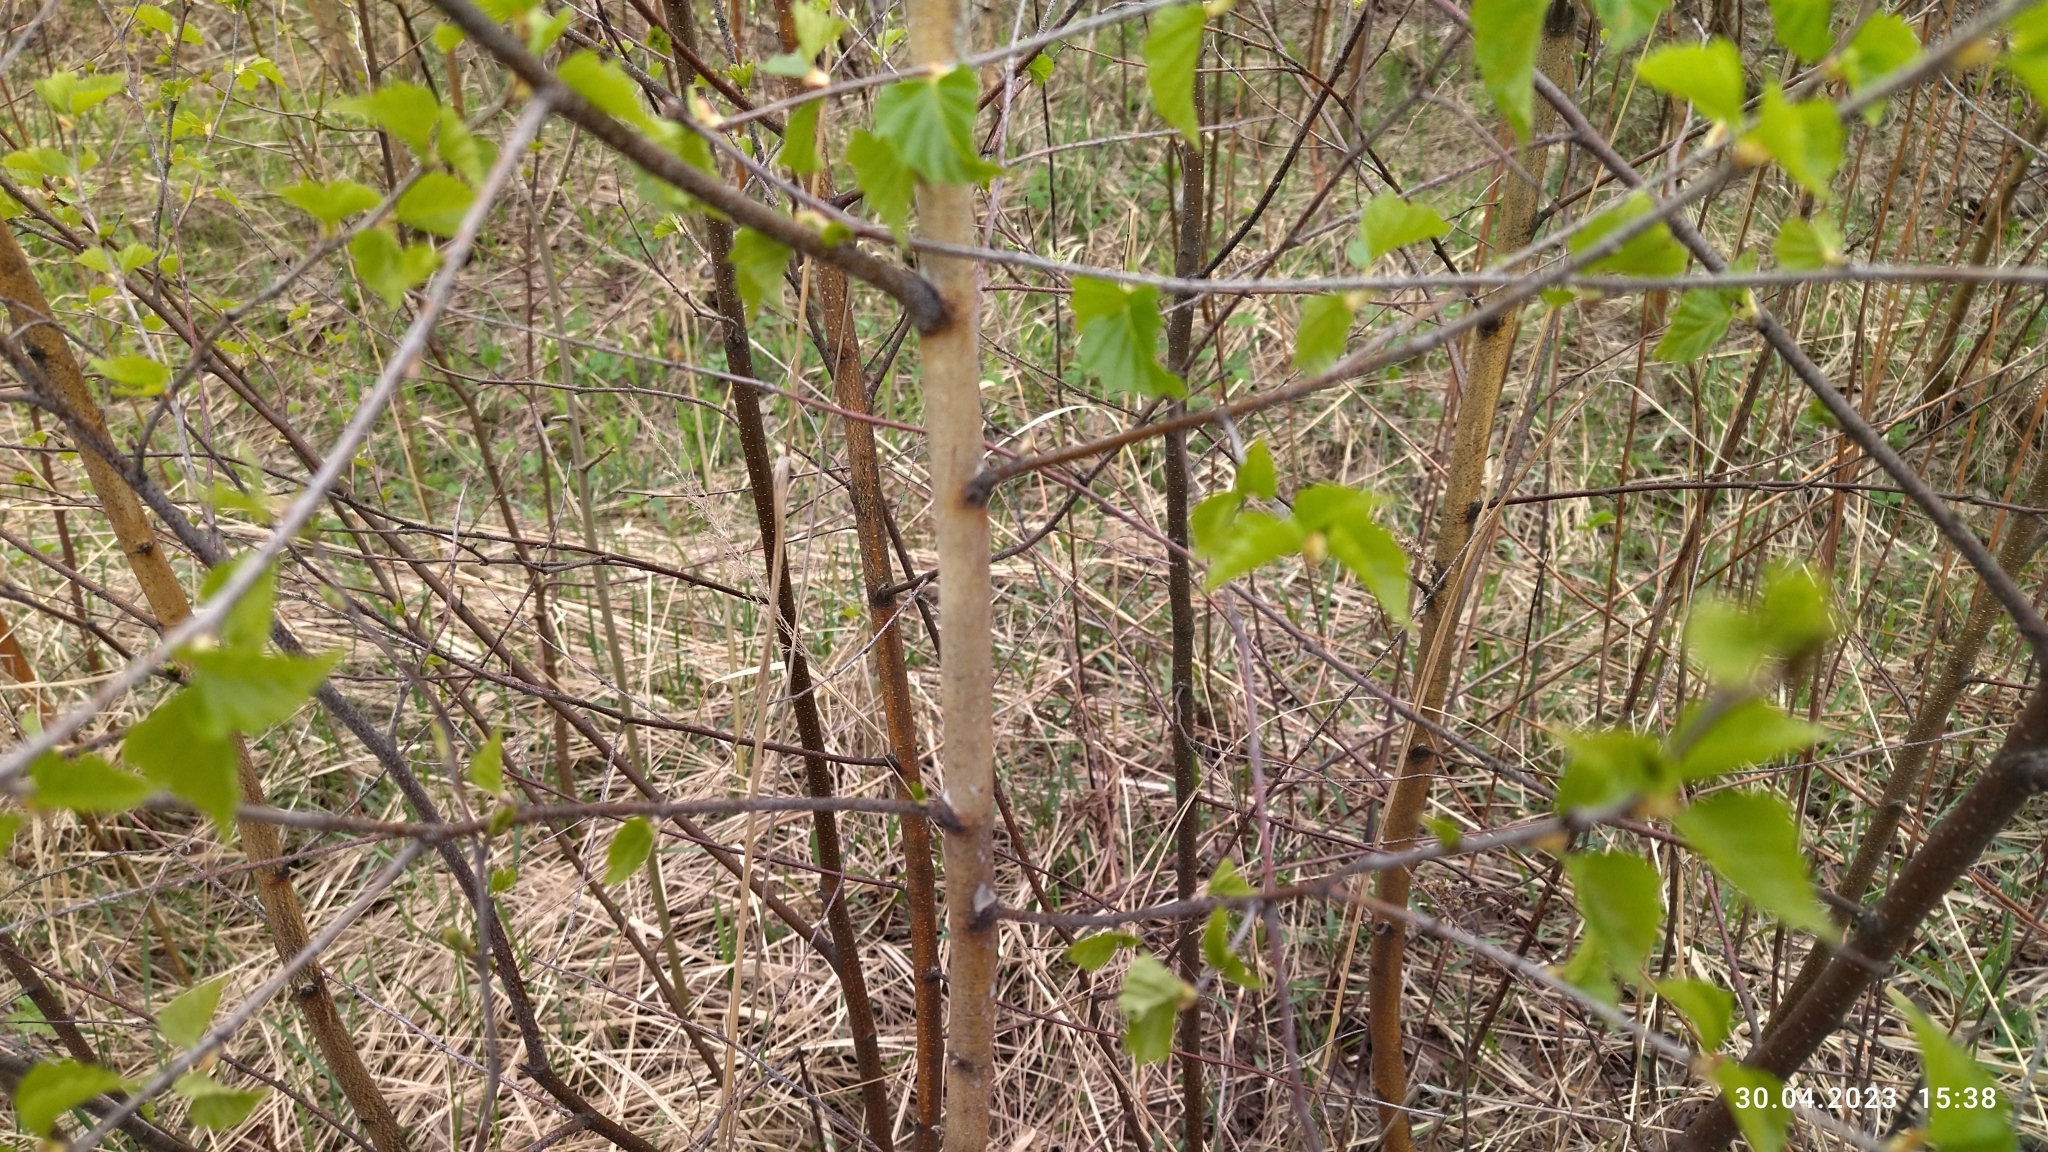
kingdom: Plantae
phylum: Tracheophyta
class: Magnoliopsida
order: Fagales
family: Betulaceae
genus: Betula
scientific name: Betula pendula
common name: Silver birch
